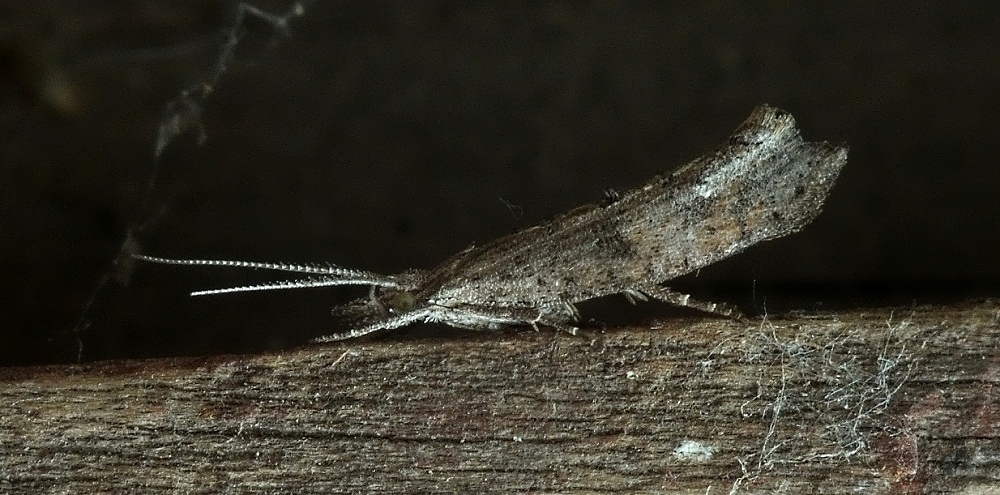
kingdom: Animalia
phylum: Arthropoda
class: Insecta
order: Lepidoptera
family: Ypsolophidae
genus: Ypsolopha
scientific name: Ypsolopha horridella
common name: Dark smudge
